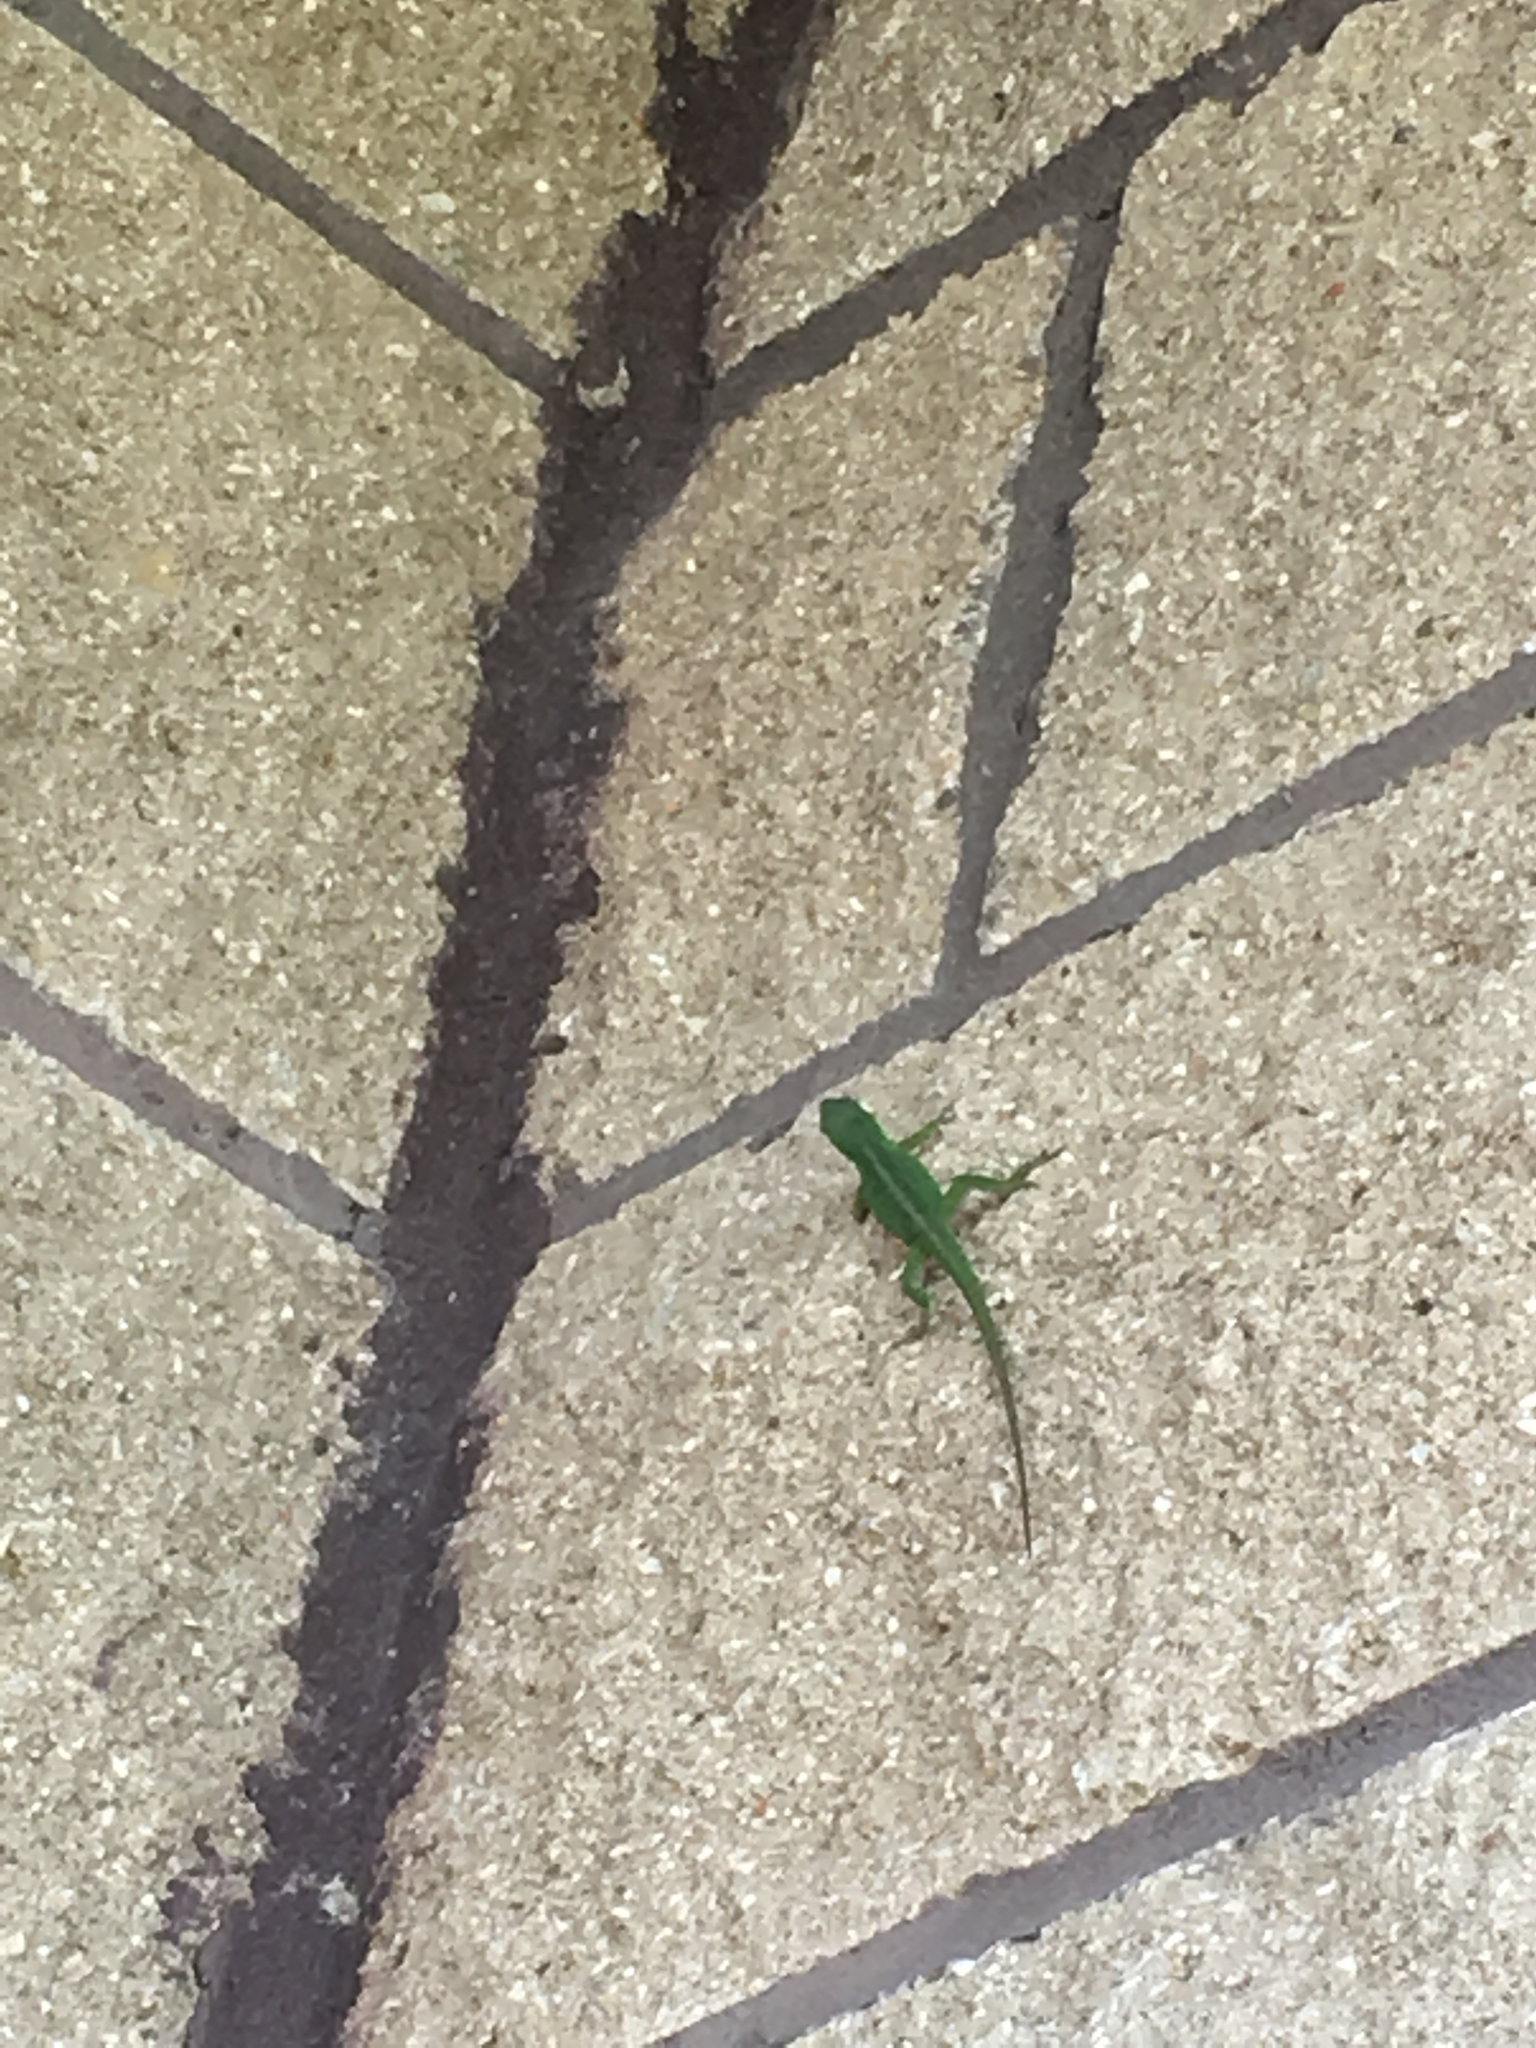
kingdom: Animalia
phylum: Chordata
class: Squamata
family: Dactyloidae
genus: Anolis
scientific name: Anolis carolinensis
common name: Green anole
